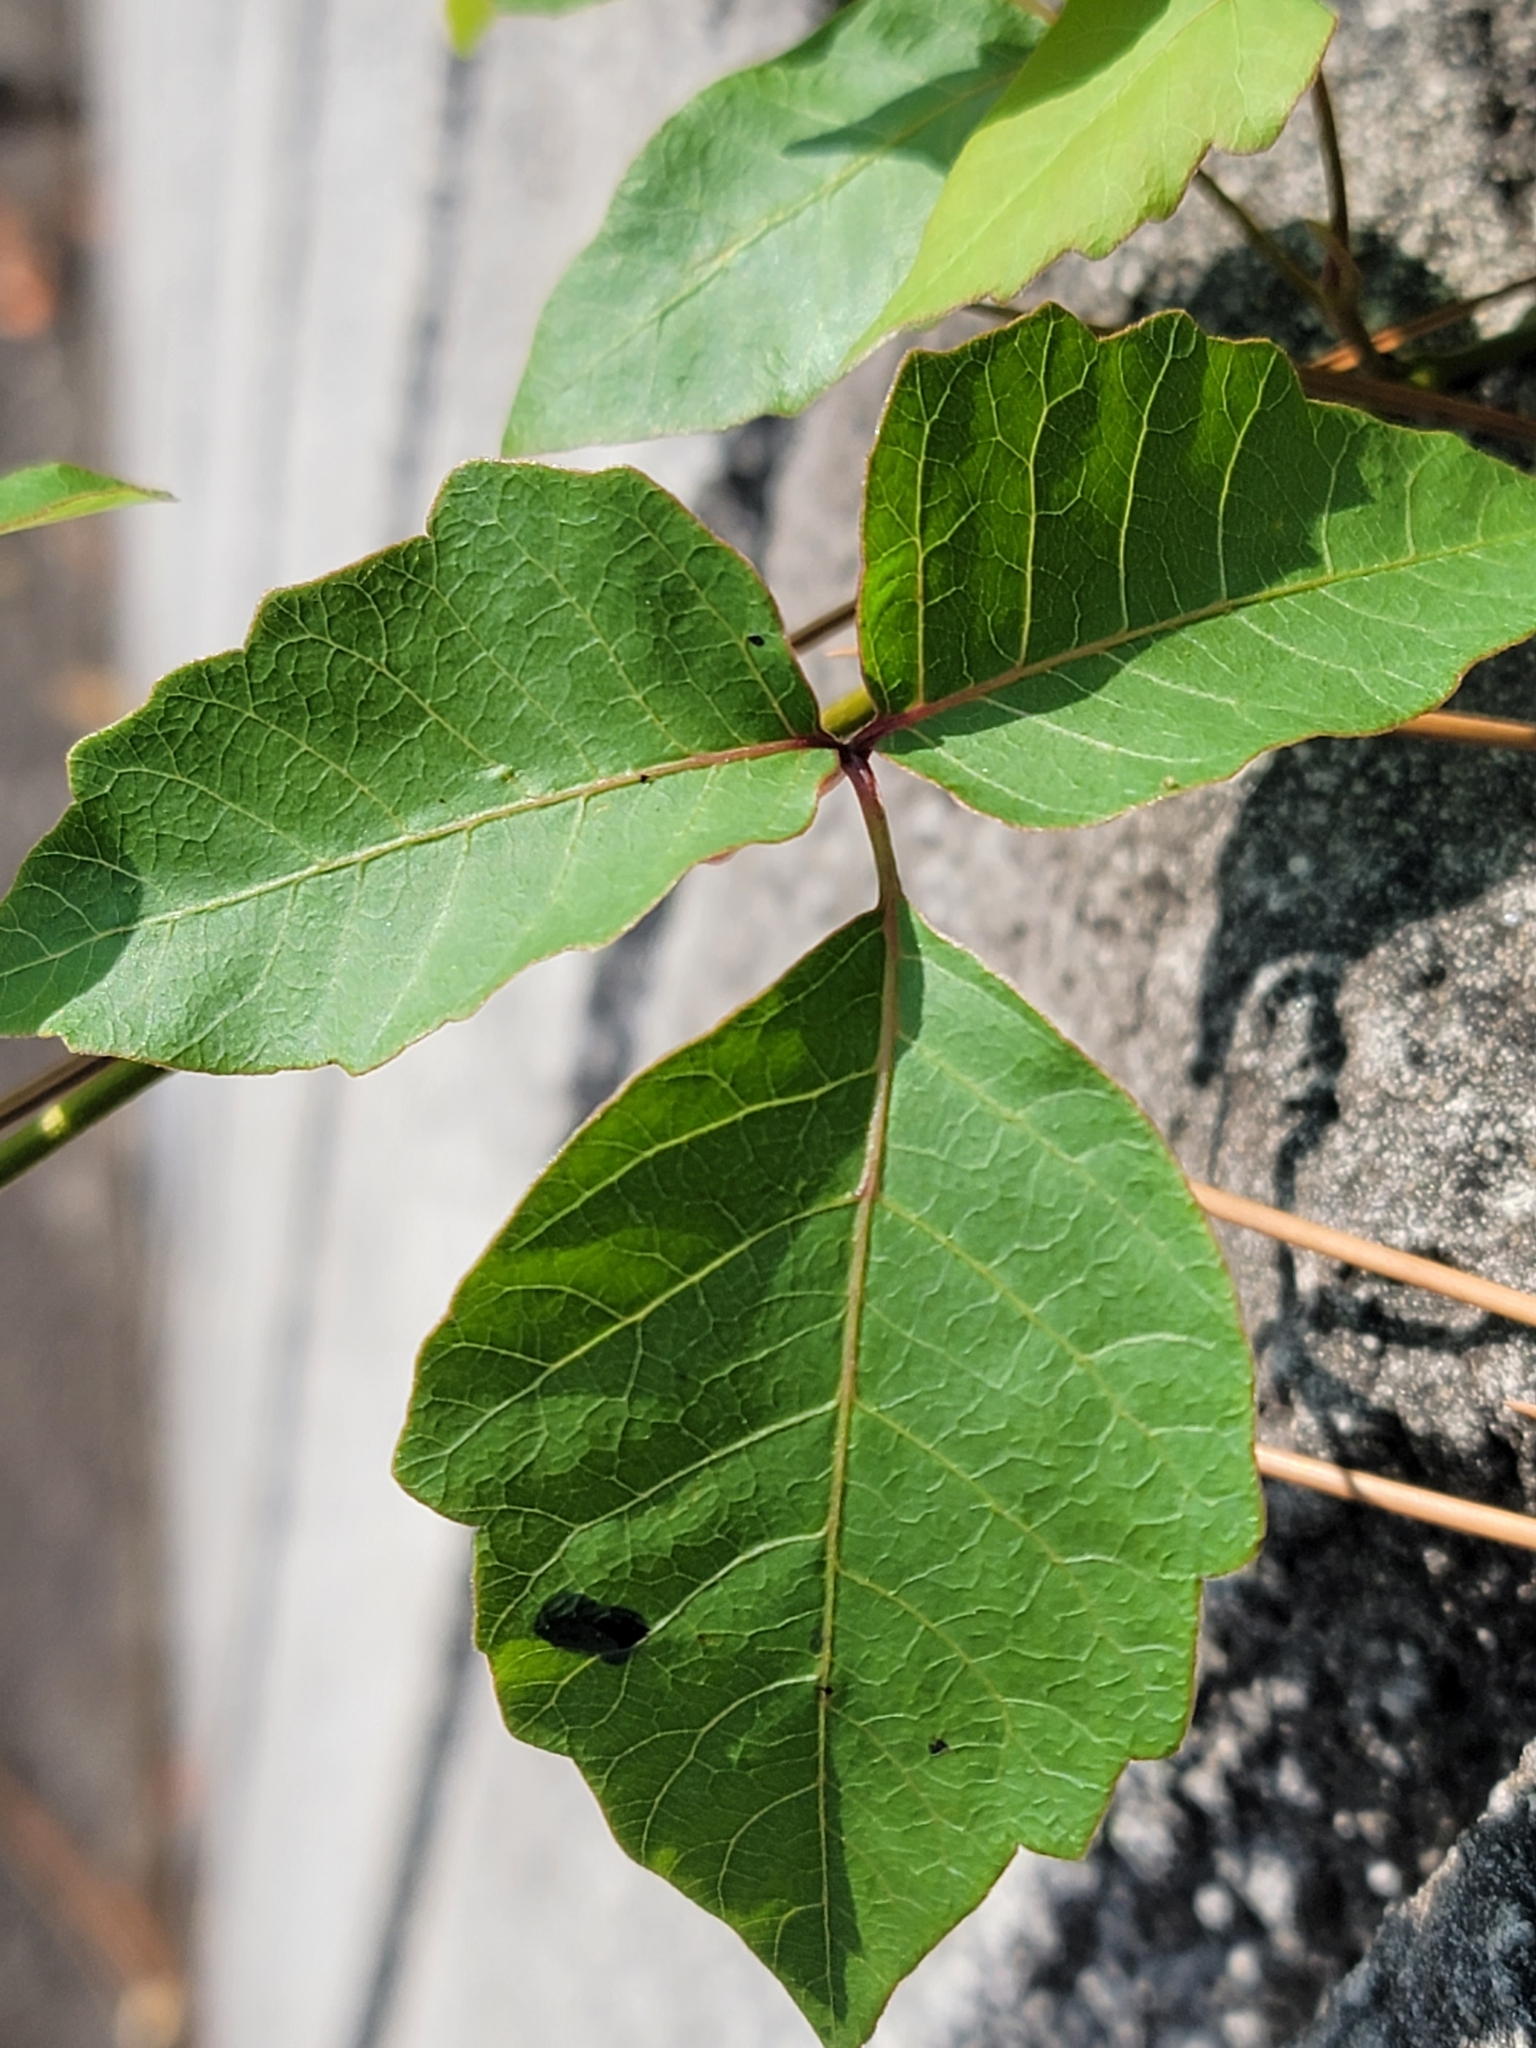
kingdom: Plantae
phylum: Tracheophyta
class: Magnoliopsida
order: Sapindales
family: Anacardiaceae
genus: Toxicodendron
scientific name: Toxicodendron radicans
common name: Poison ivy
